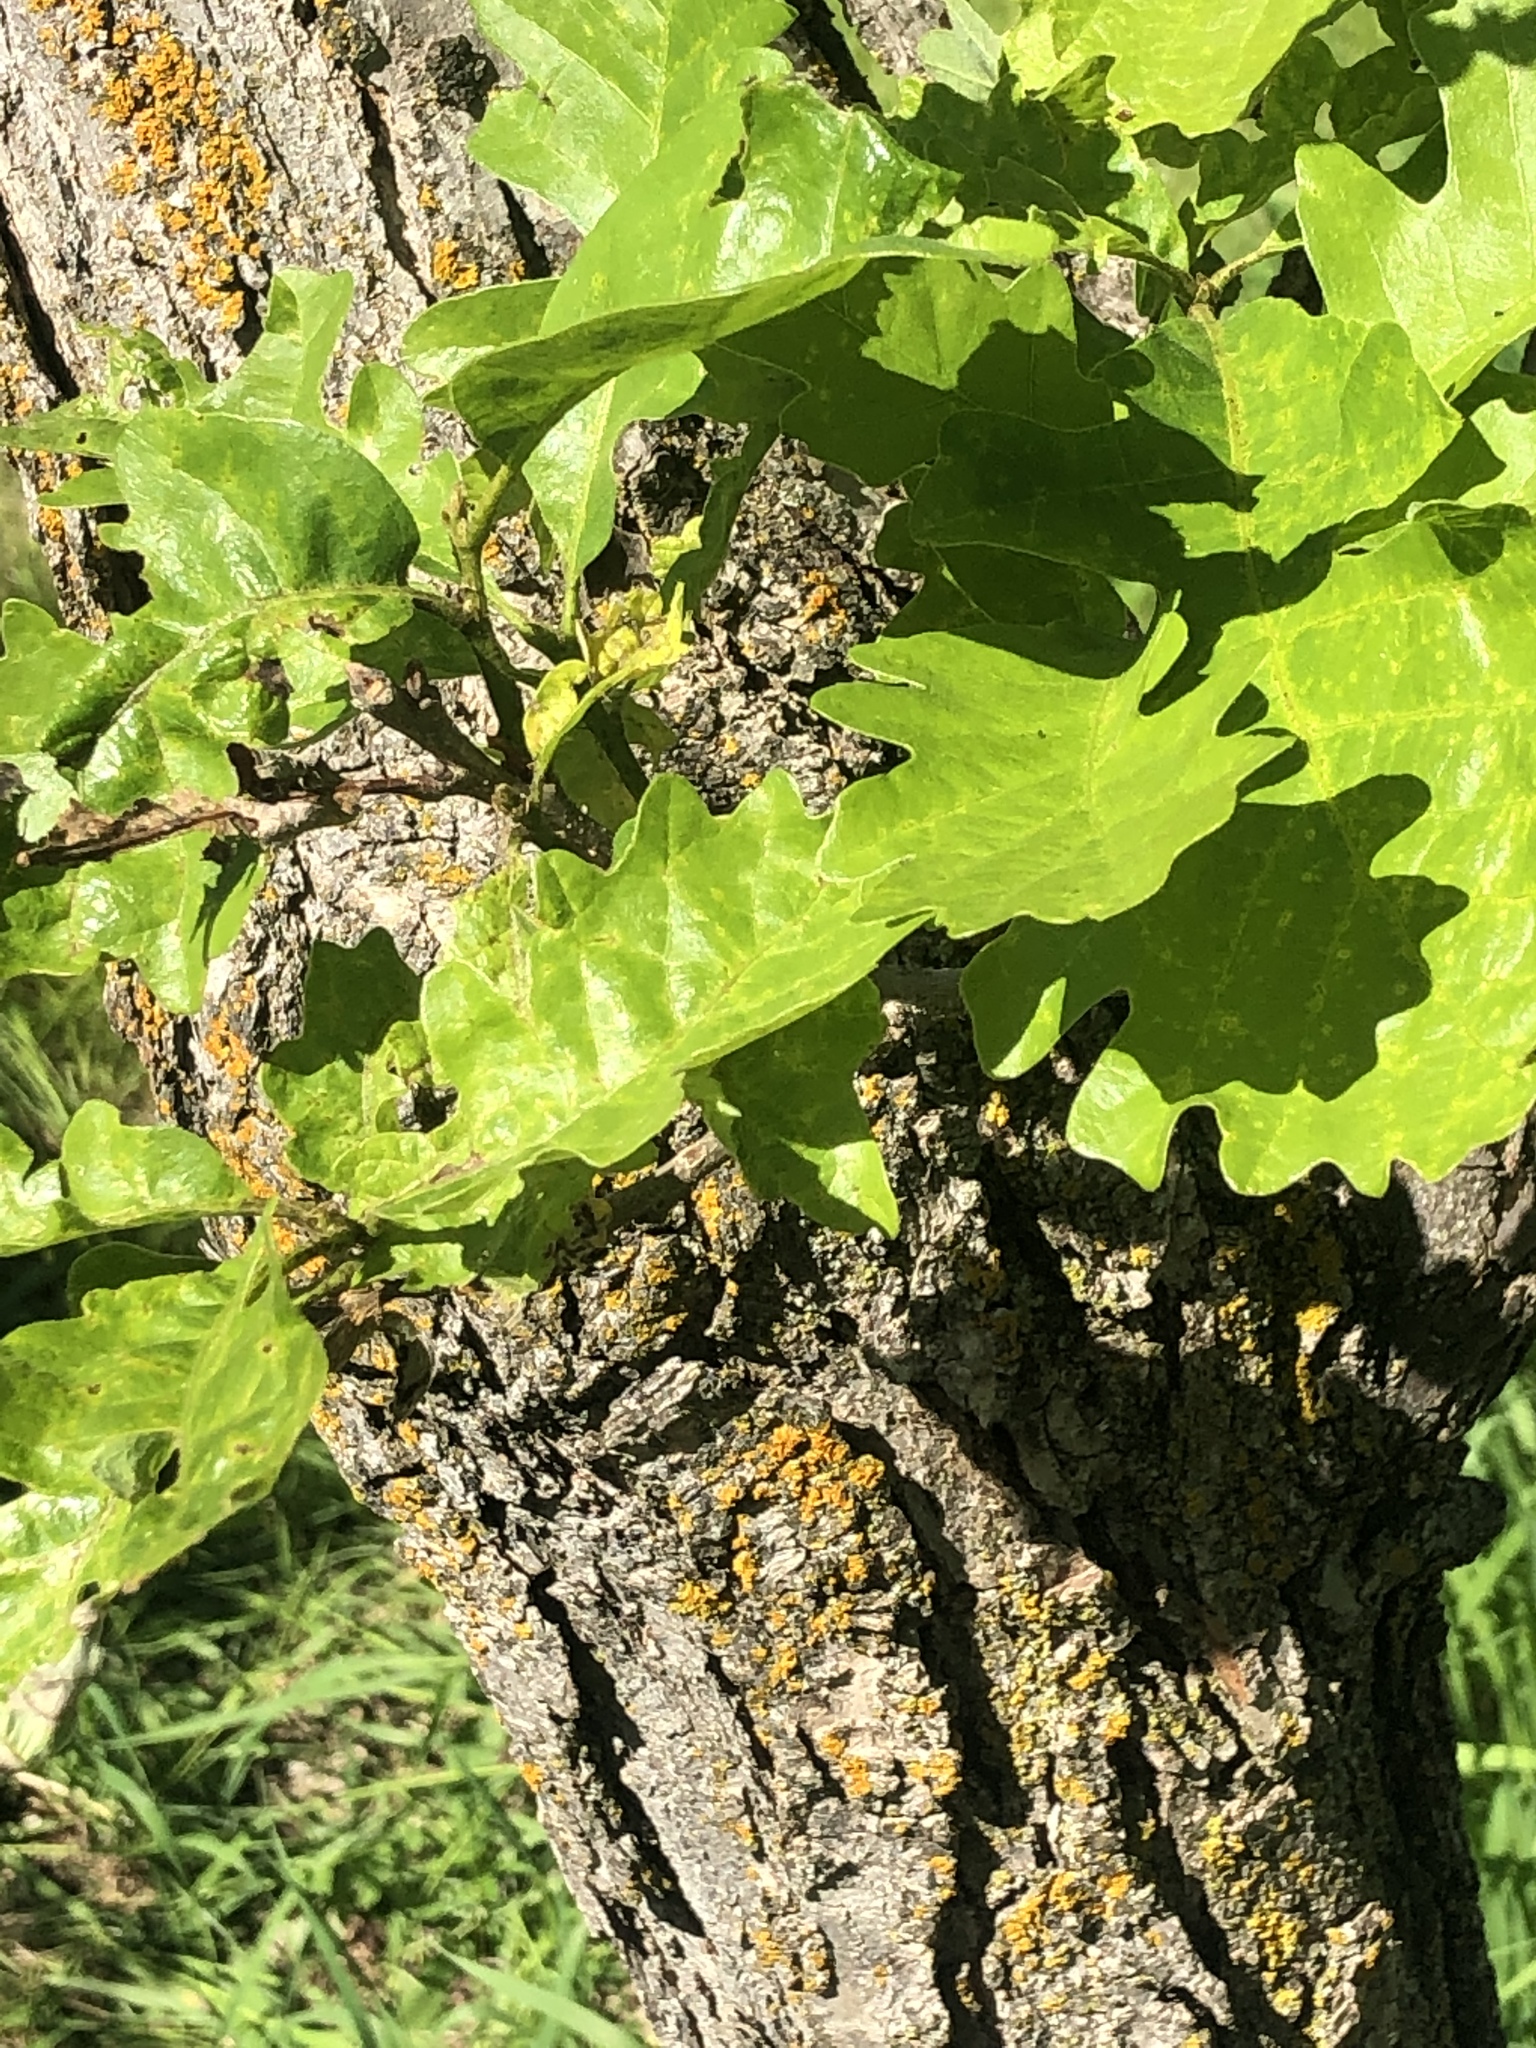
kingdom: Plantae
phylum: Tracheophyta
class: Magnoliopsida
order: Fagales
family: Fagaceae
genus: Quercus
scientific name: Quercus macrocarpa
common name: Bur oak
